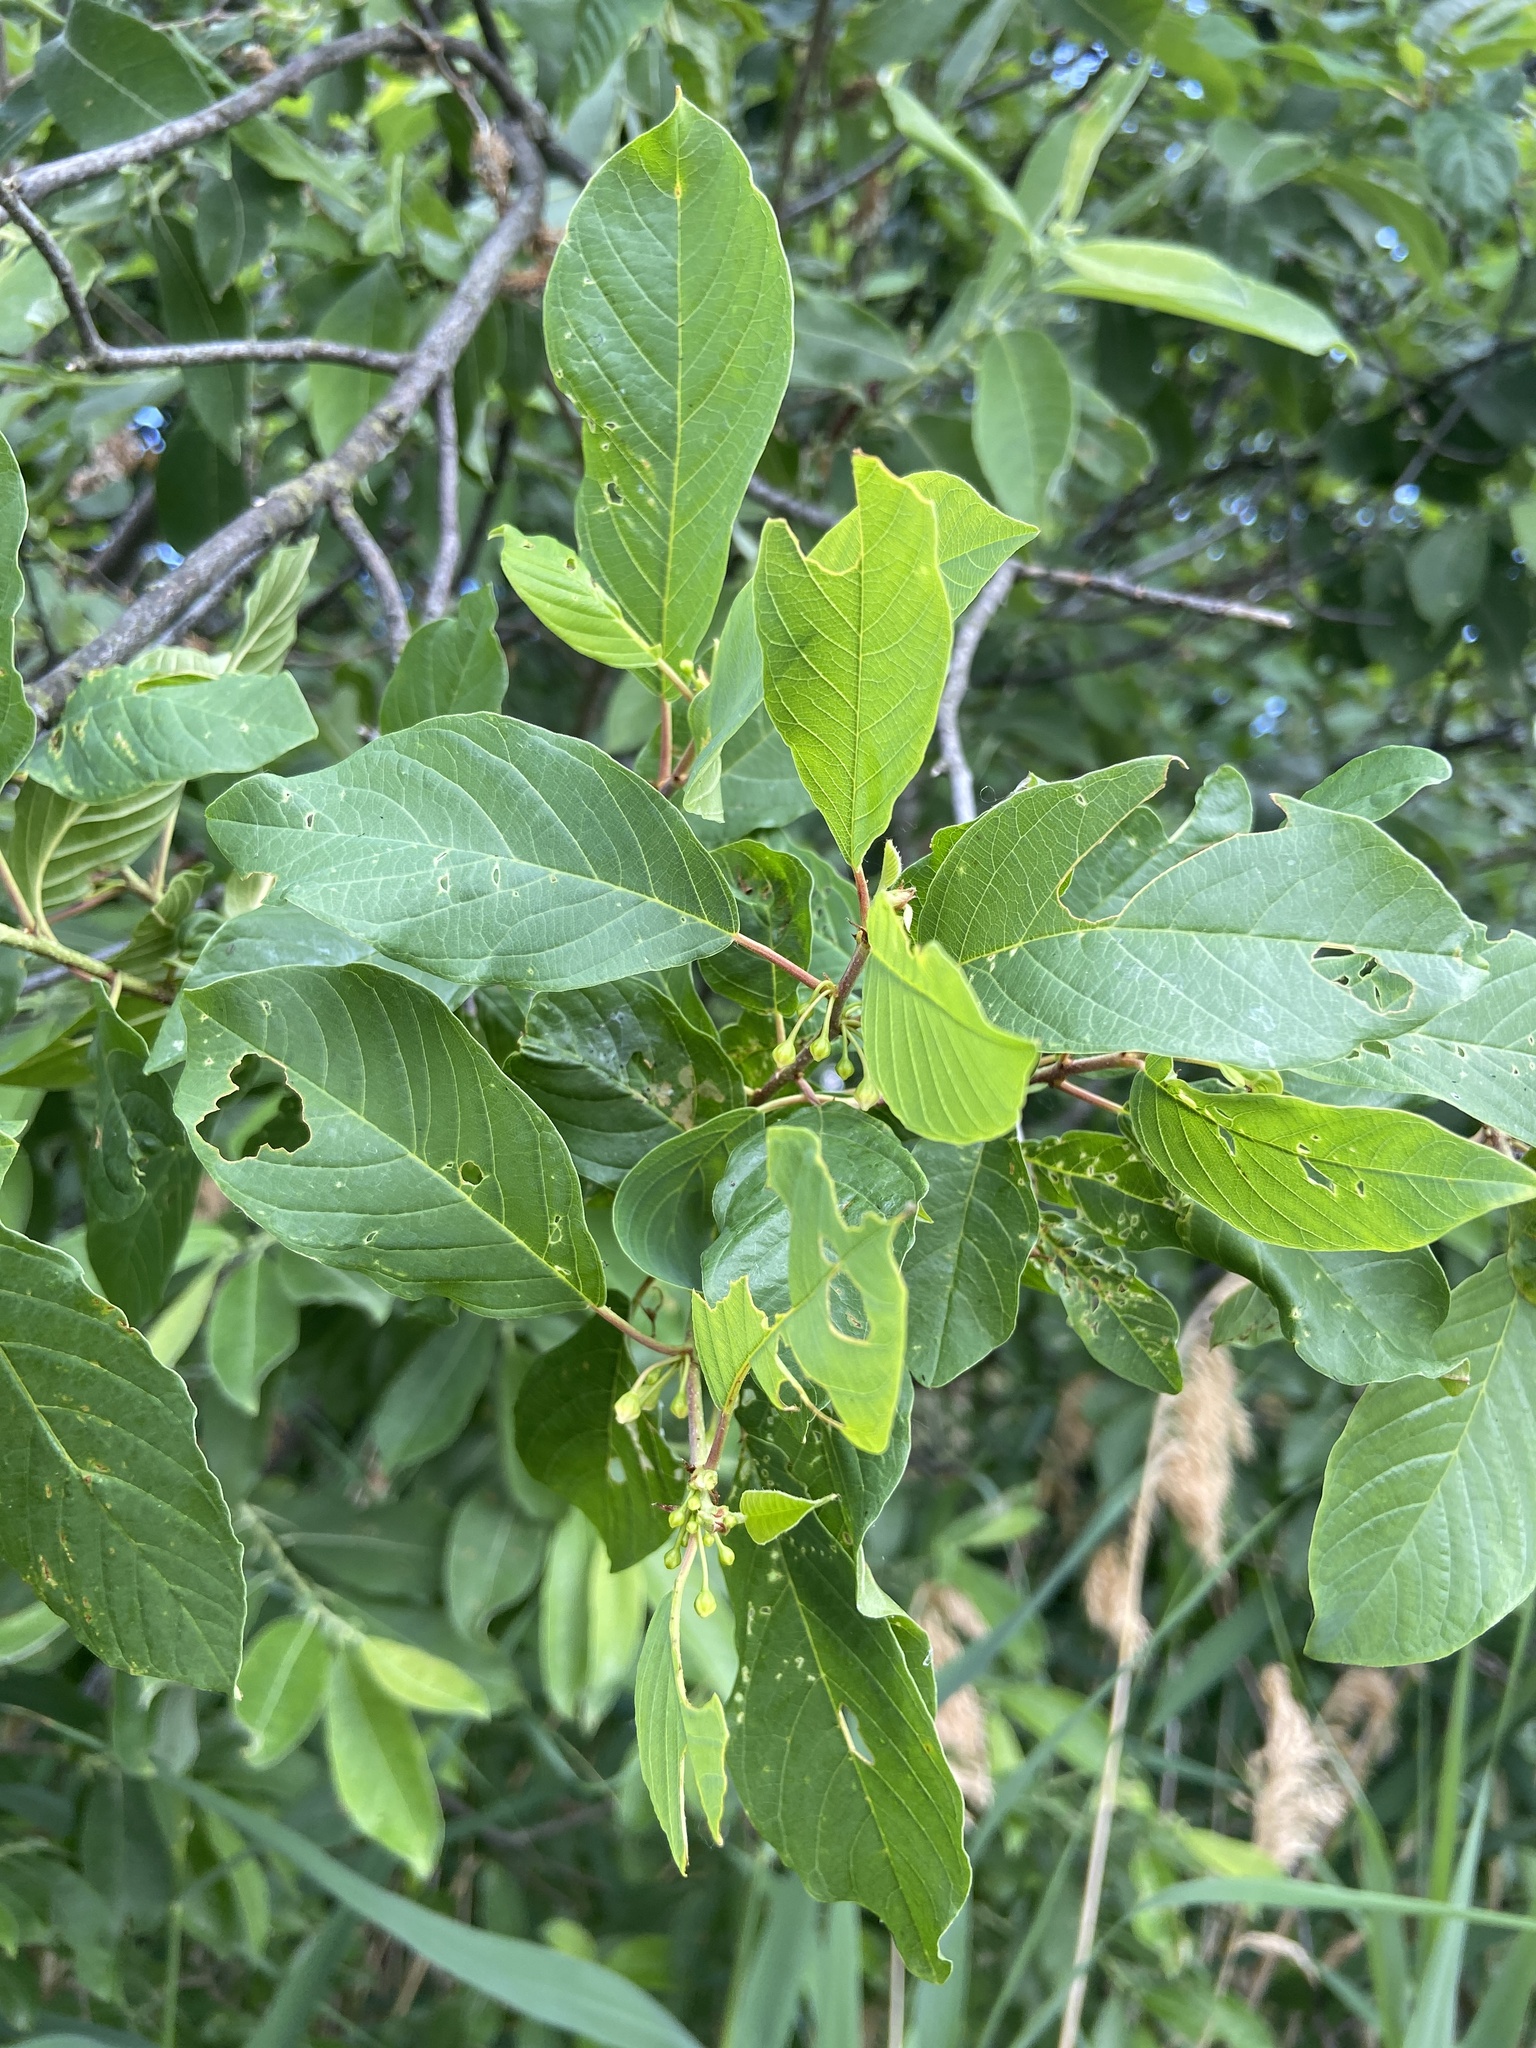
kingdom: Plantae
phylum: Tracheophyta
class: Magnoliopsida
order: Rosales
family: Rhamnaceae
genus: Frangula
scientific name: Frangula alnus
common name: Alder buckthorn
